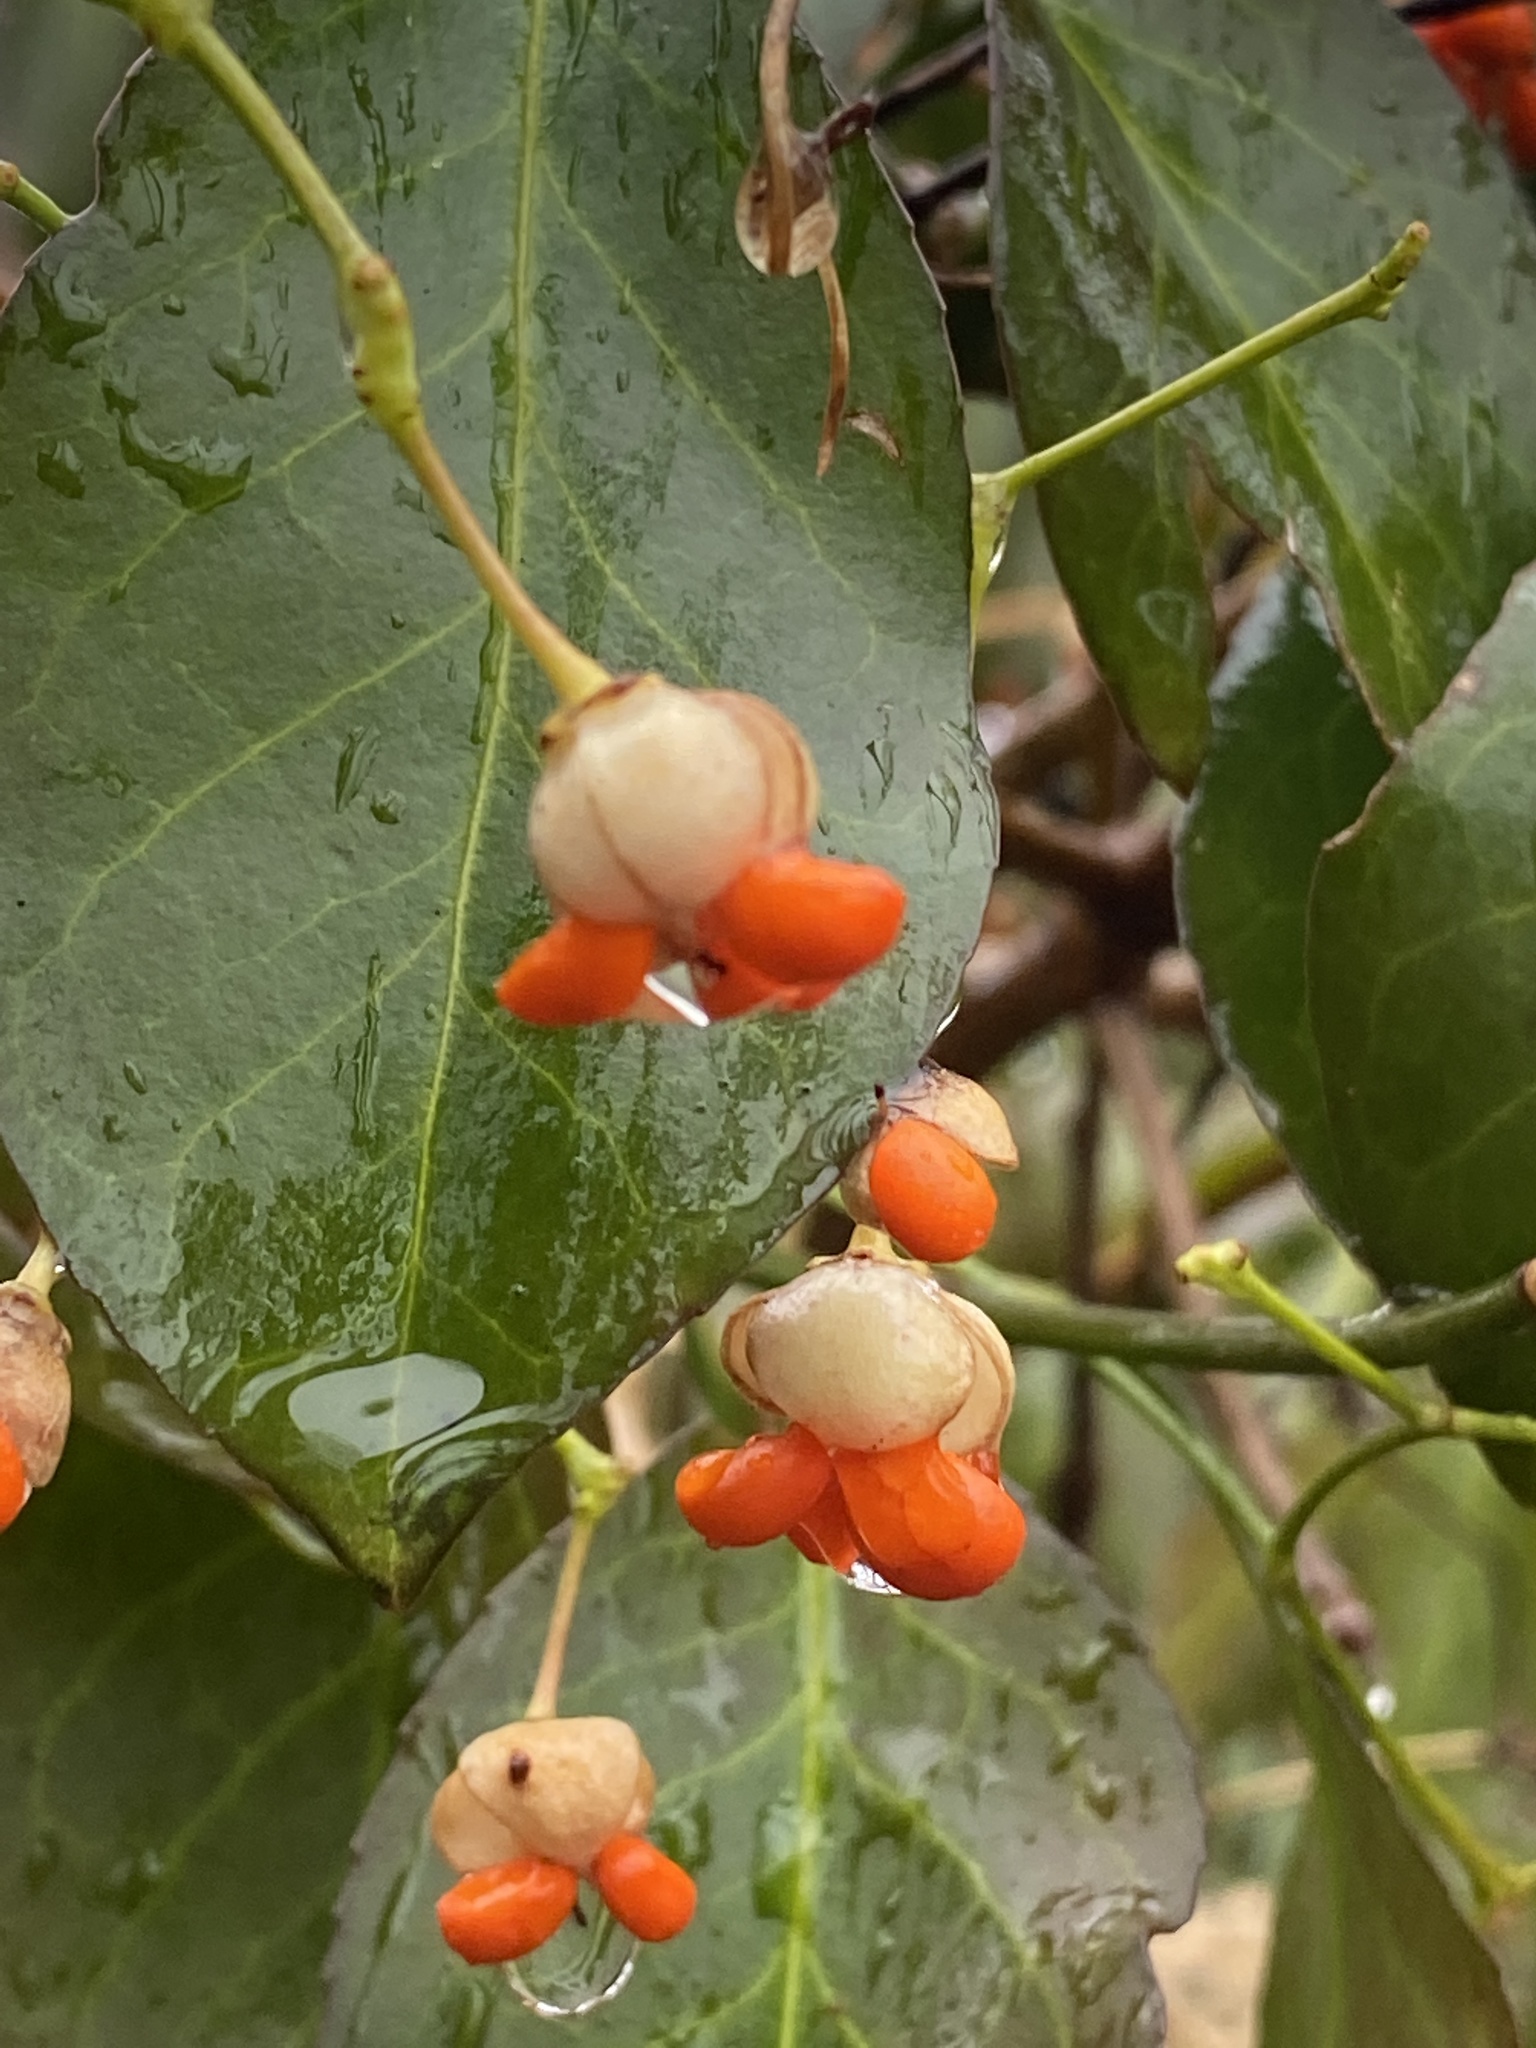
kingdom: Plantae
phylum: Tracheophyta
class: Magnoliopsida
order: Celastrales
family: Celastraceae
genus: Euonymus
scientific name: Euonymus fortunei
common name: Climbing euonymus
